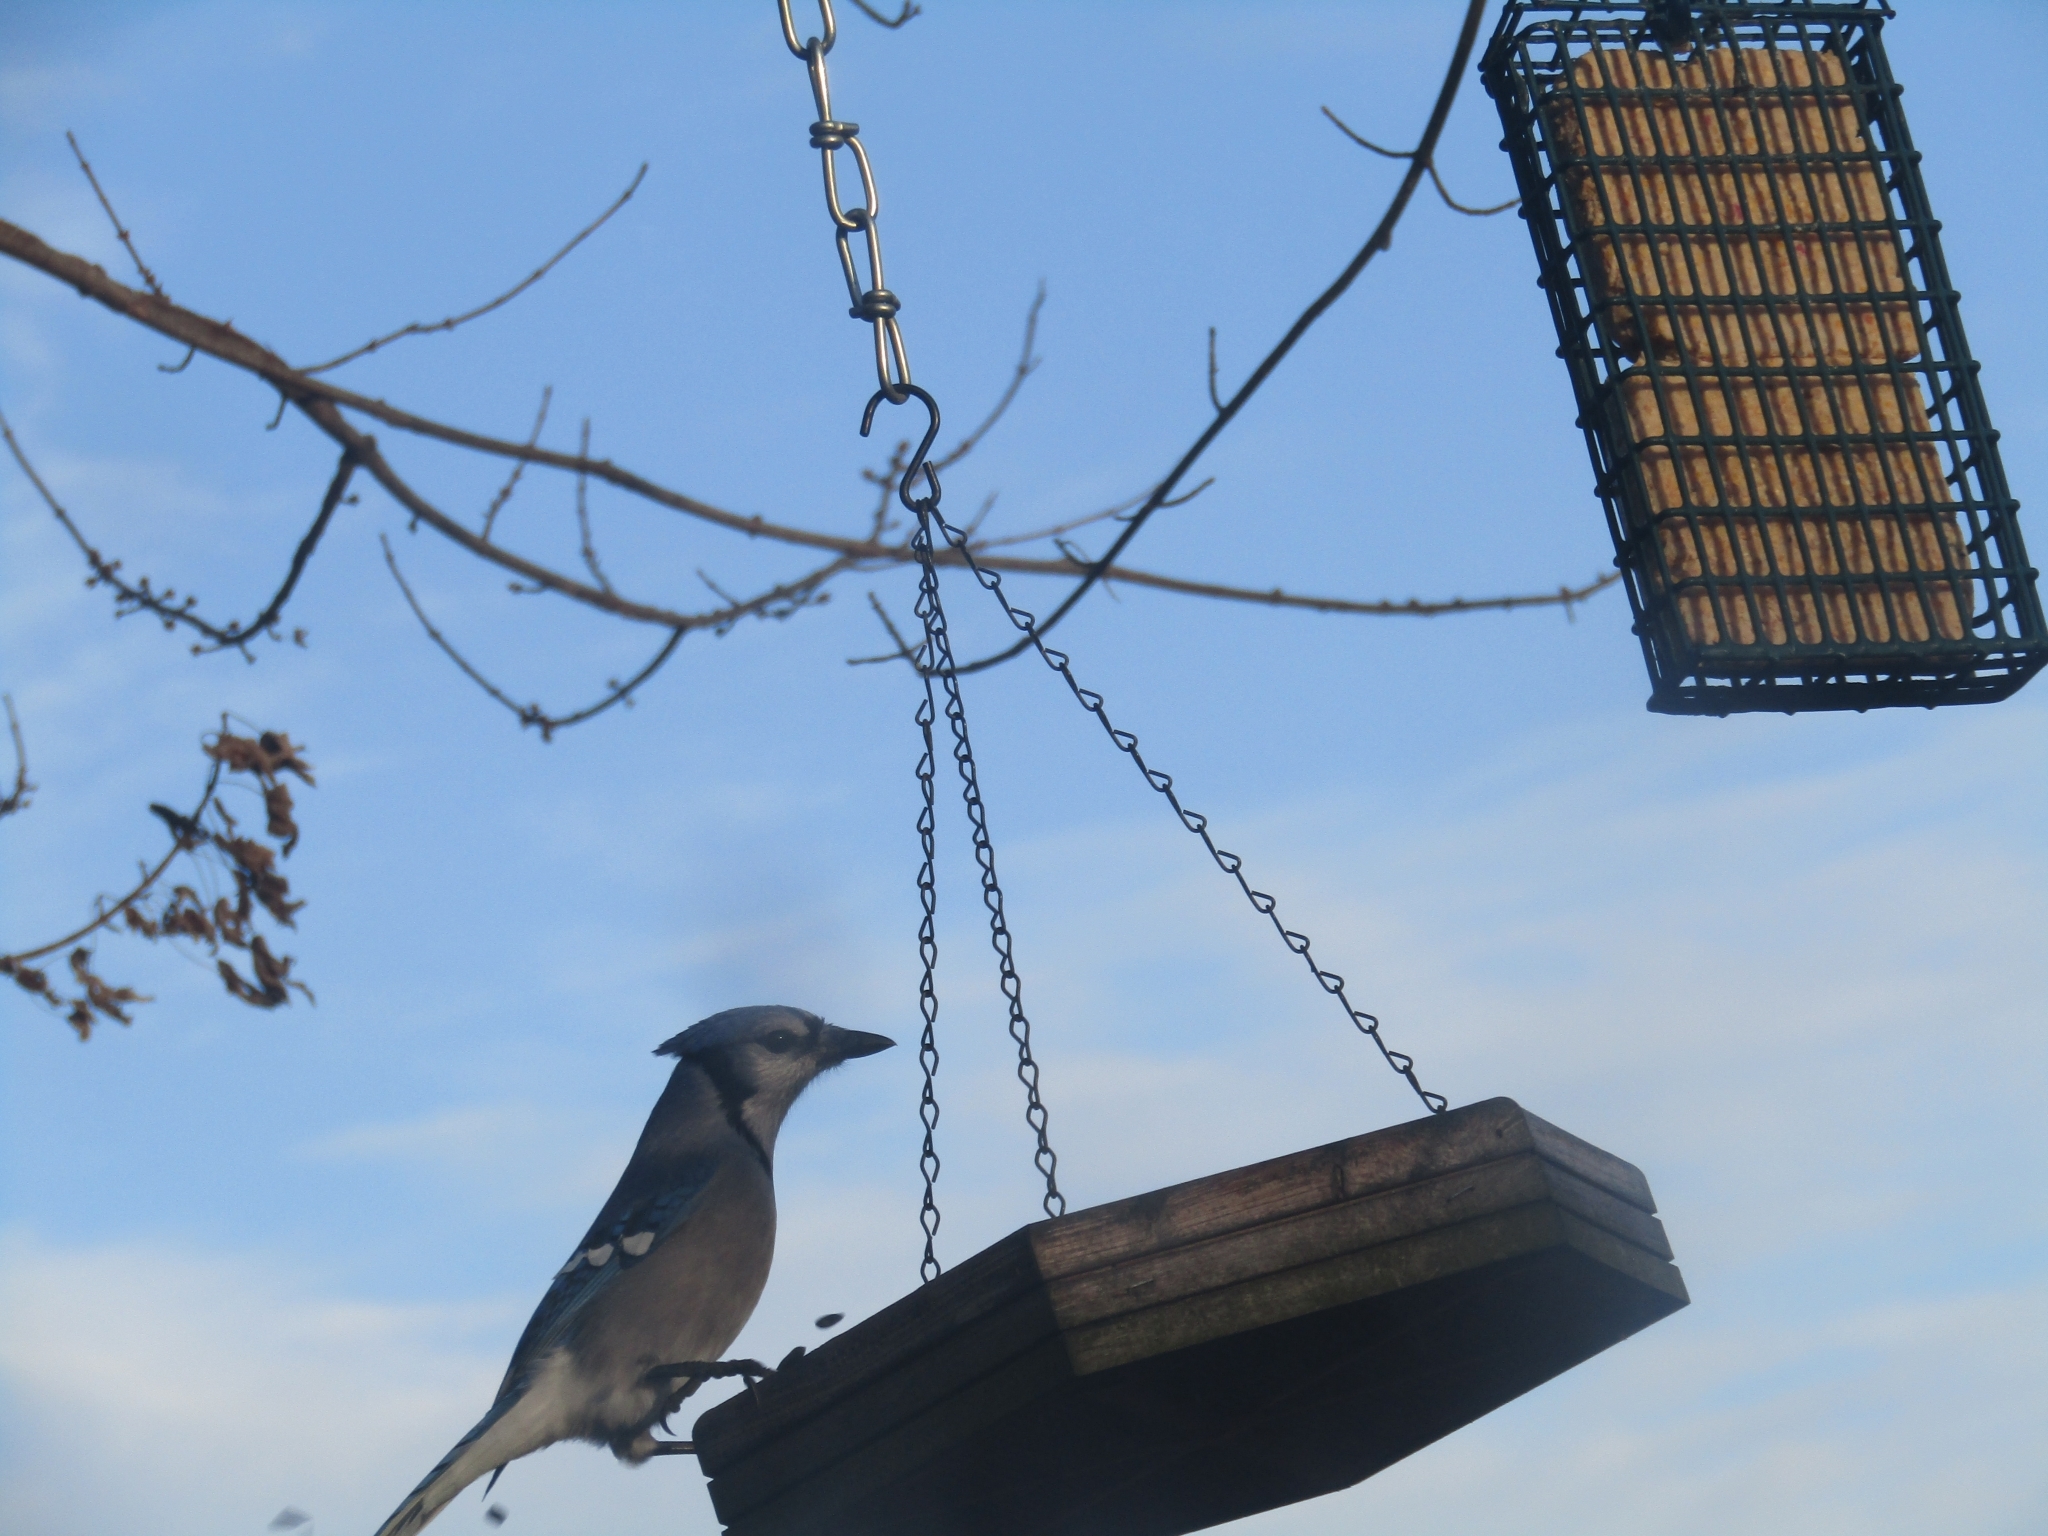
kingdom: Animalia
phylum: Chordata
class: Aves
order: Passeriformes
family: Corvidae
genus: Cyanocitta
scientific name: Cyanocitta cristata
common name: Blue jay
